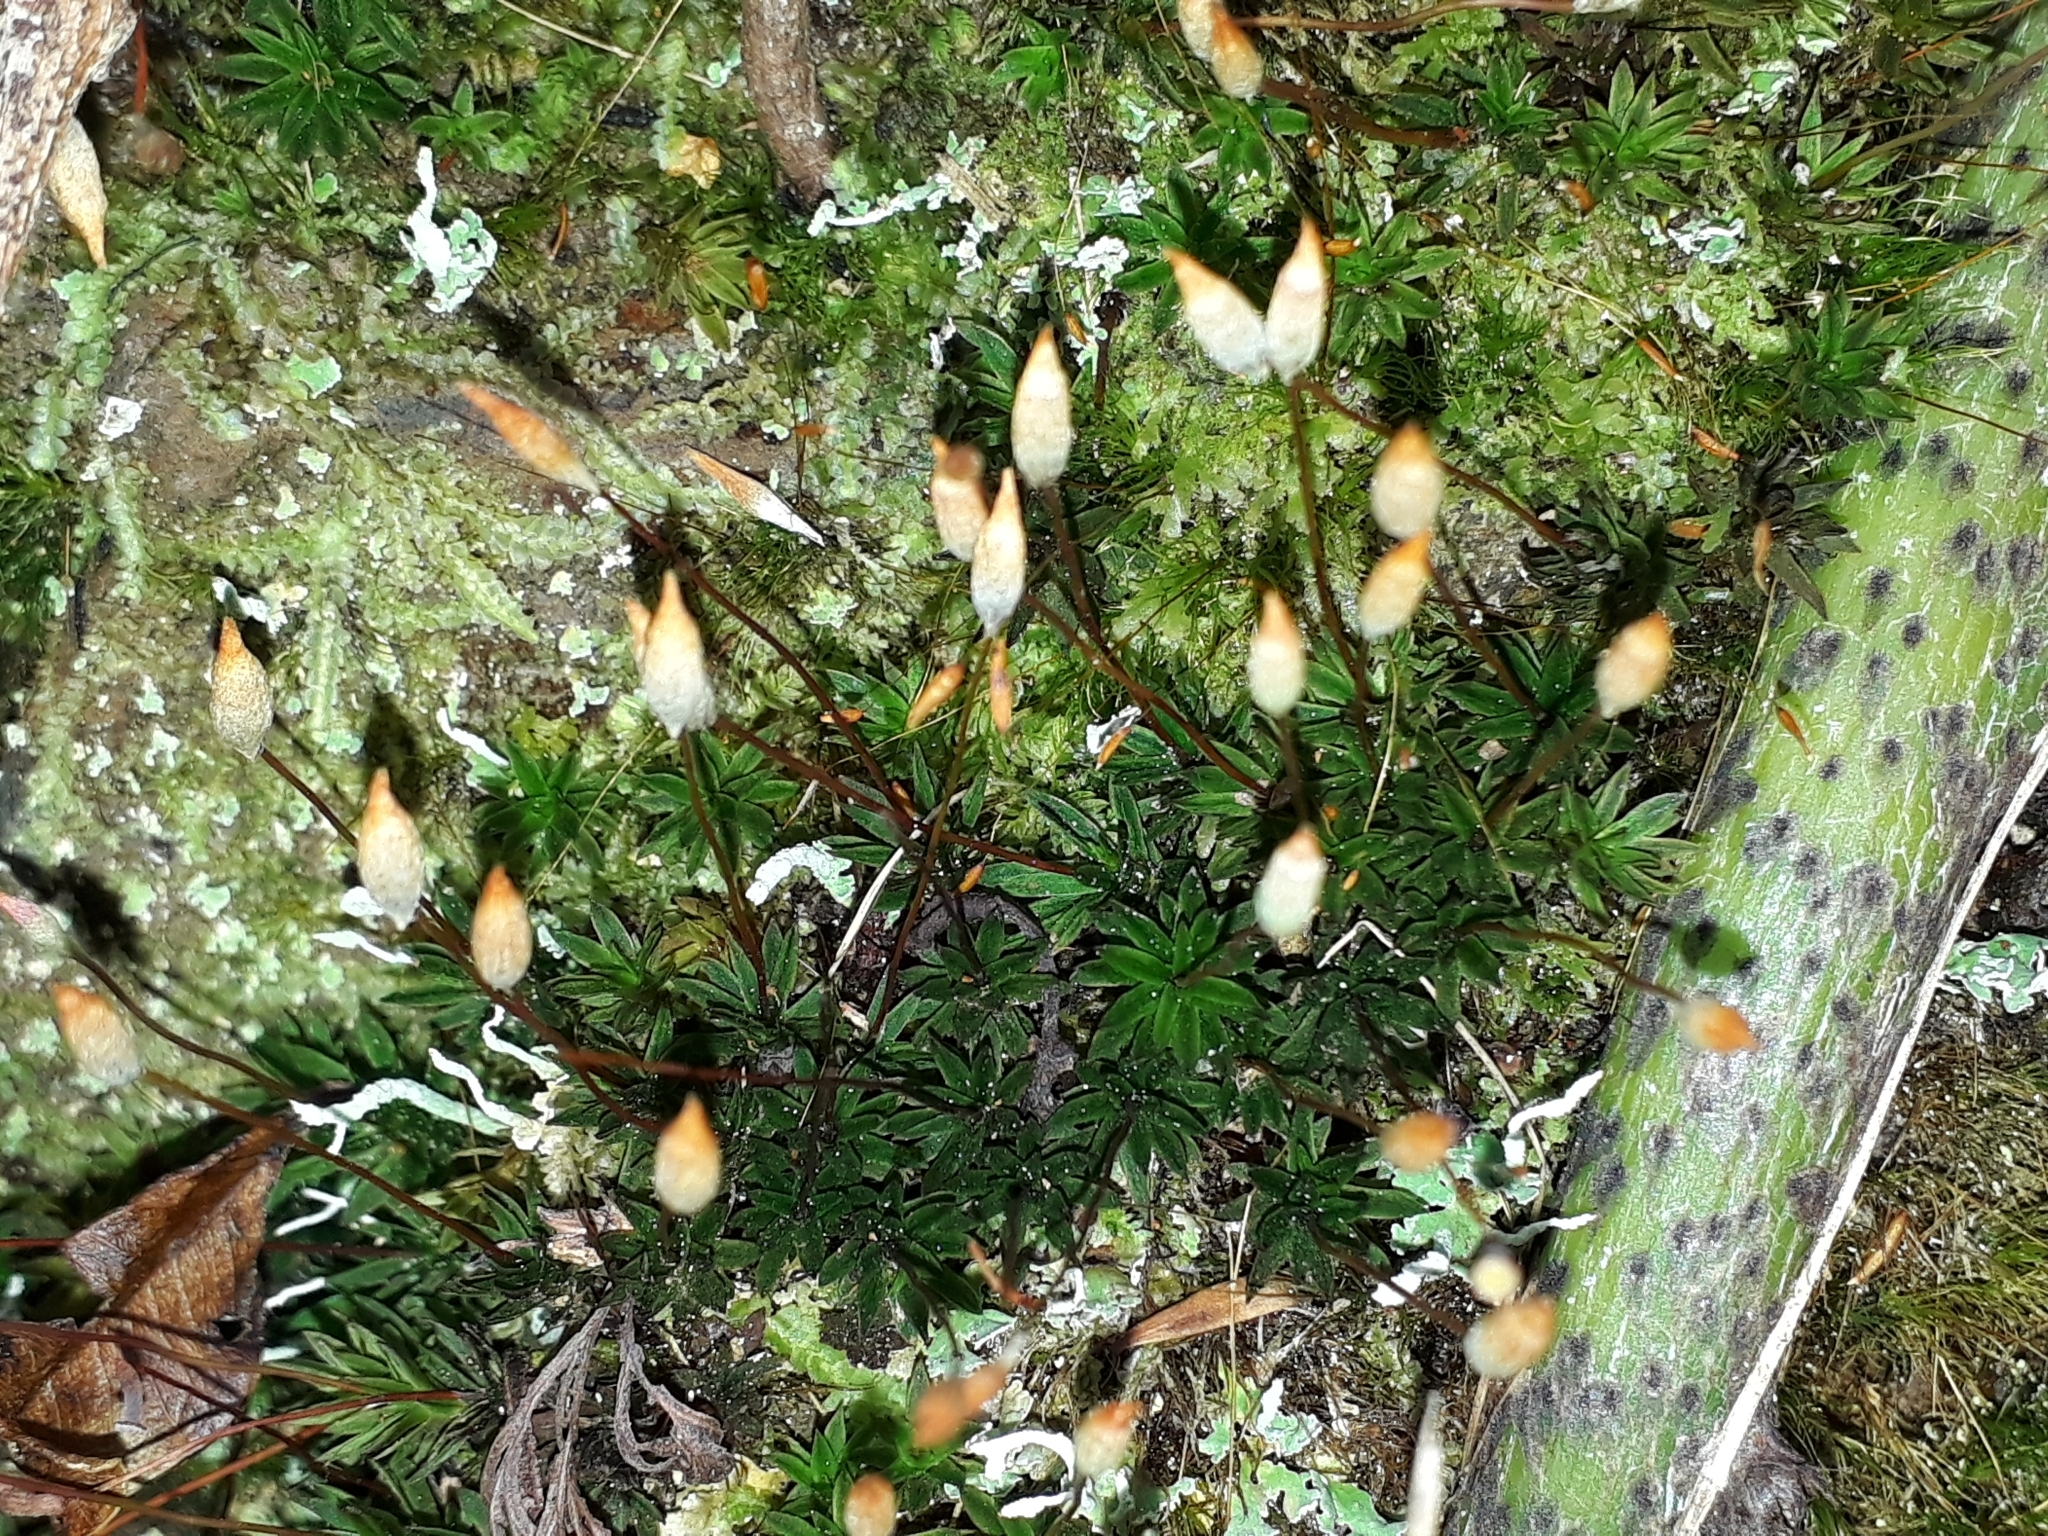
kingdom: Plantae
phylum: Bryophyta
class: Polytrichopsida
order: Polytrichales
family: Polytrichaceae
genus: Pogonatum
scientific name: Pogonatum subulatum
